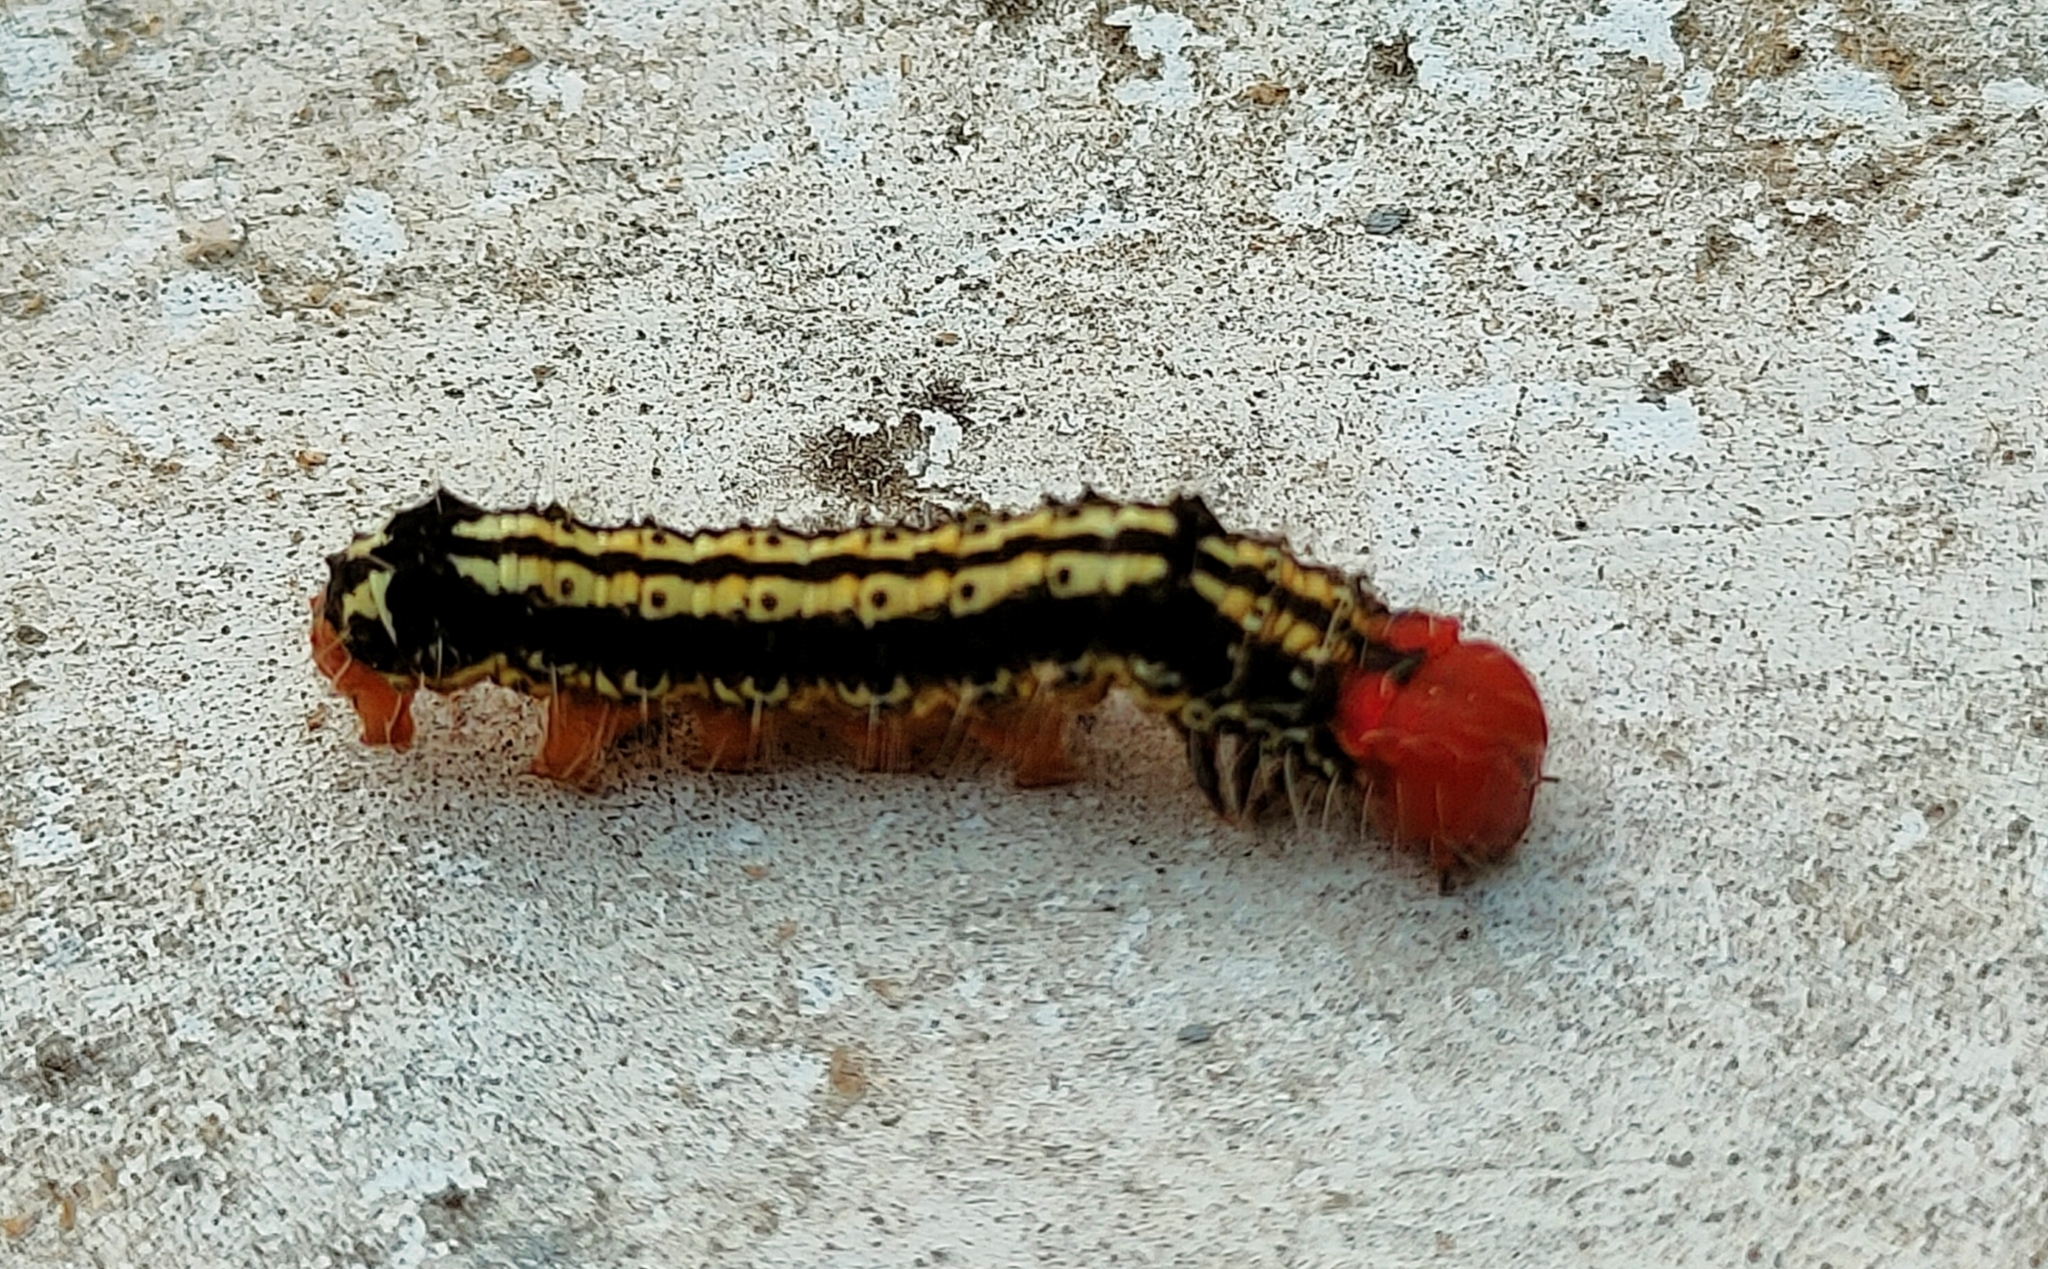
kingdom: Animalia
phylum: Arthropoda
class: Insecta
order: Lepidoptera
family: Erebidae
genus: Asota
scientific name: Asota caricae
